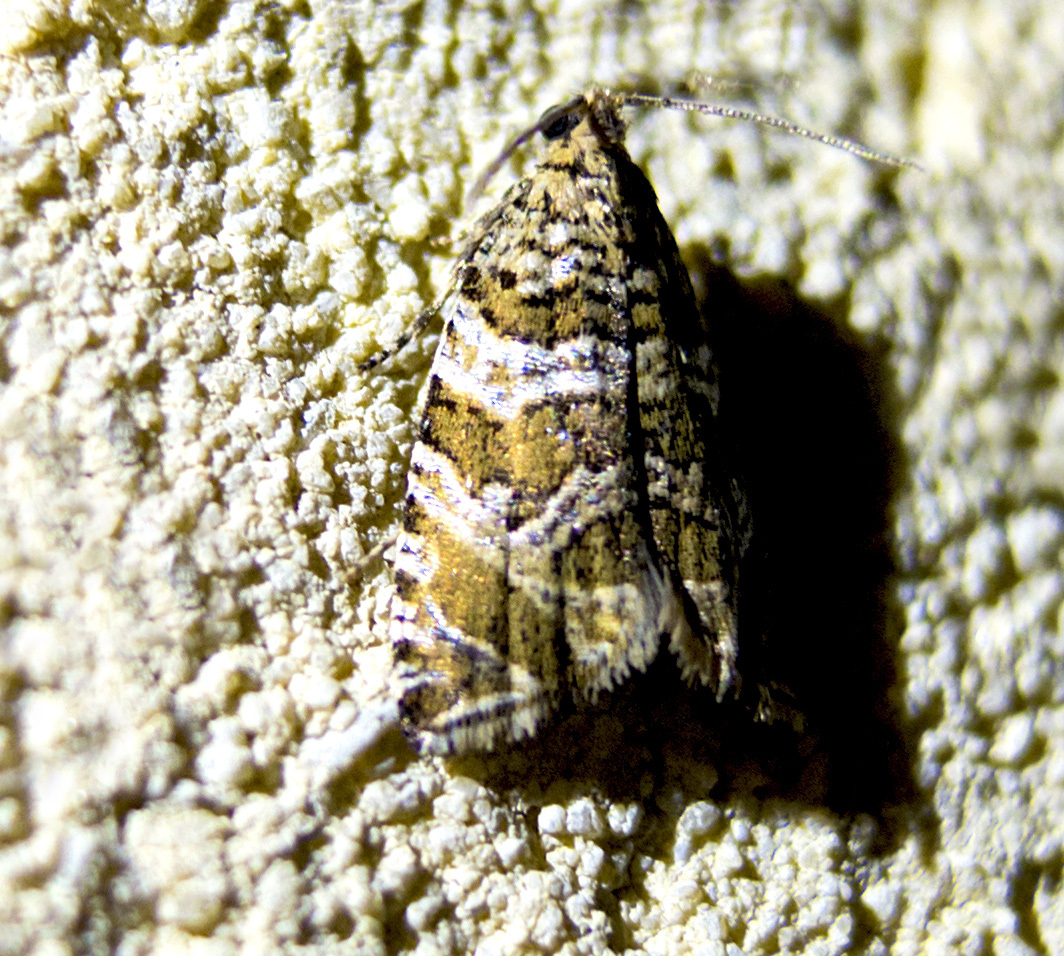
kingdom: Animalia
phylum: Arthropoda
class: Insecta
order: Lepidoptera
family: Tortricidae
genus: Syricoris
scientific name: Syricoris rivulana
